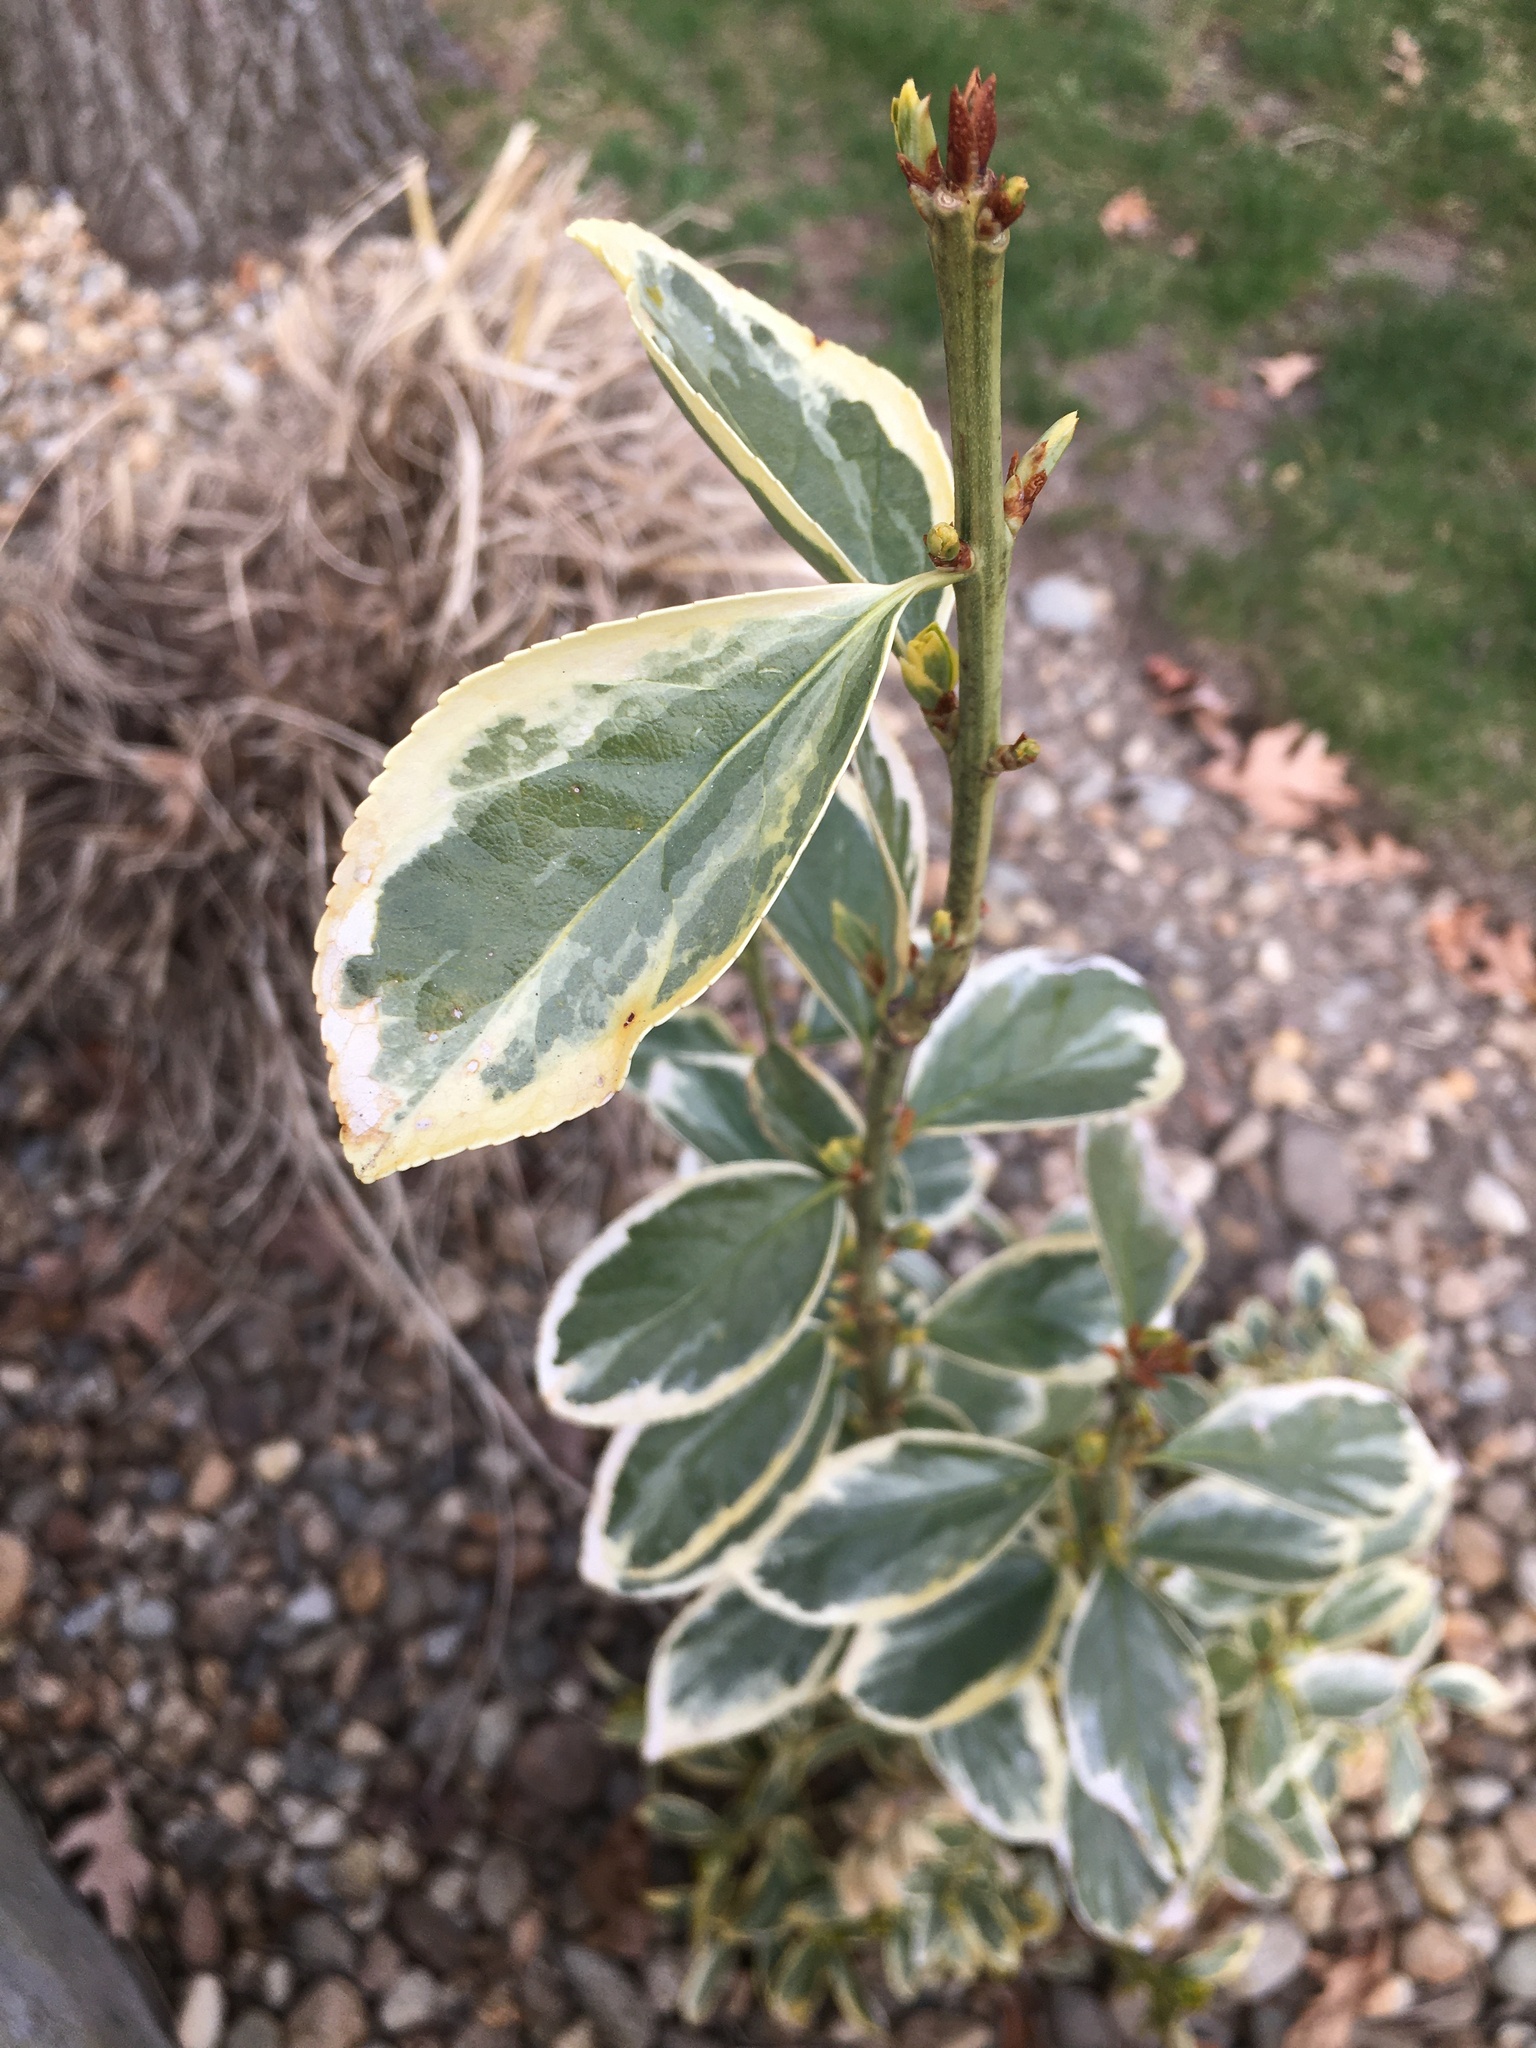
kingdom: Plantae
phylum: Tracheophyta
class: Magnoliopsida
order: Celastrales
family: Celastraceae
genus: Euonymus
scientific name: Euonymus fortunei
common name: Climbing euonymus
